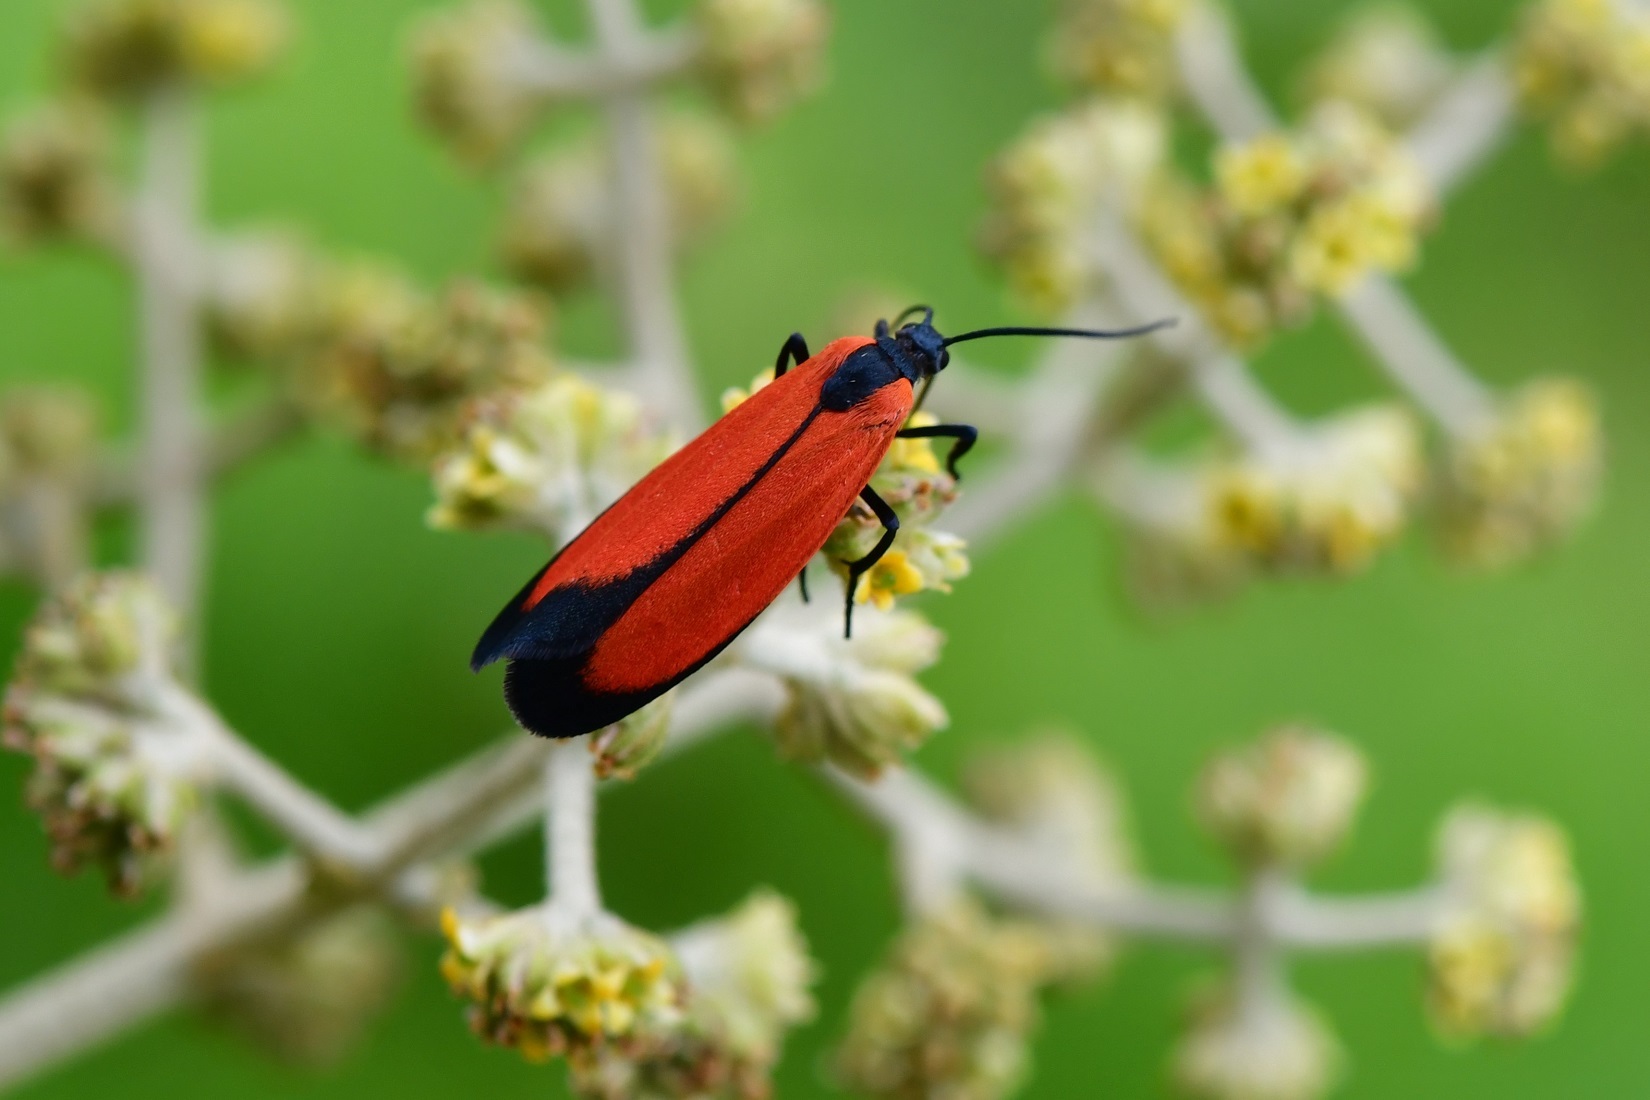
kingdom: Animalia
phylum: Arthropoda
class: Insecta
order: Lepidoptera
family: Erebidae
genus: Ptychoglene
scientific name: Ptychoglene
